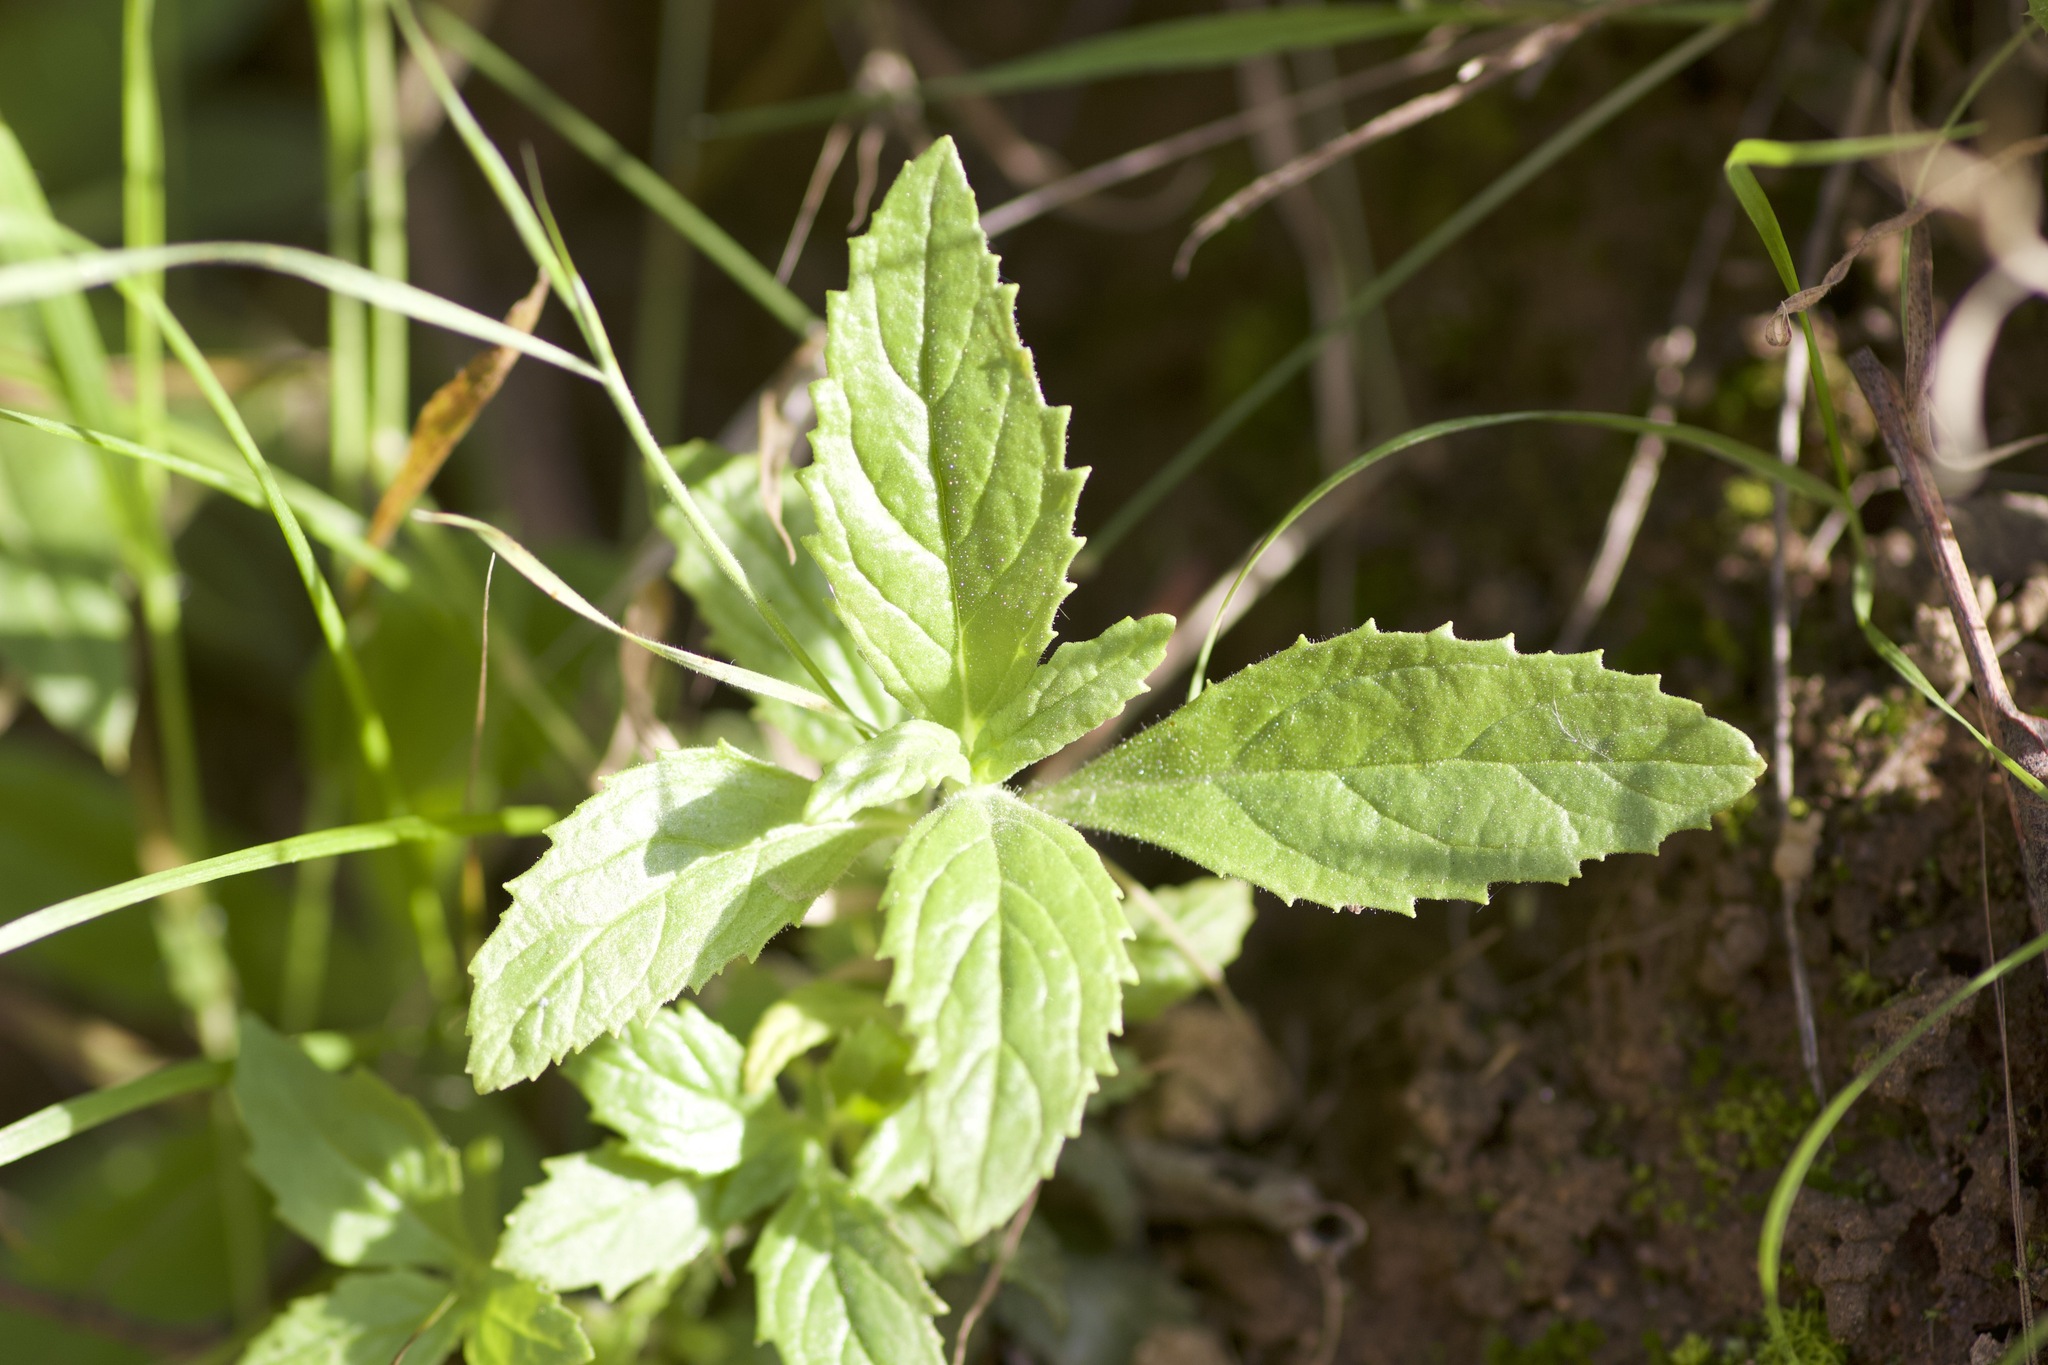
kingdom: Plantae
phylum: Tracheophyta
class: Magnoliopsida
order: Lamiales
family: Phrymaceae
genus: Diplacus
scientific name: Diplacus longiflorus
